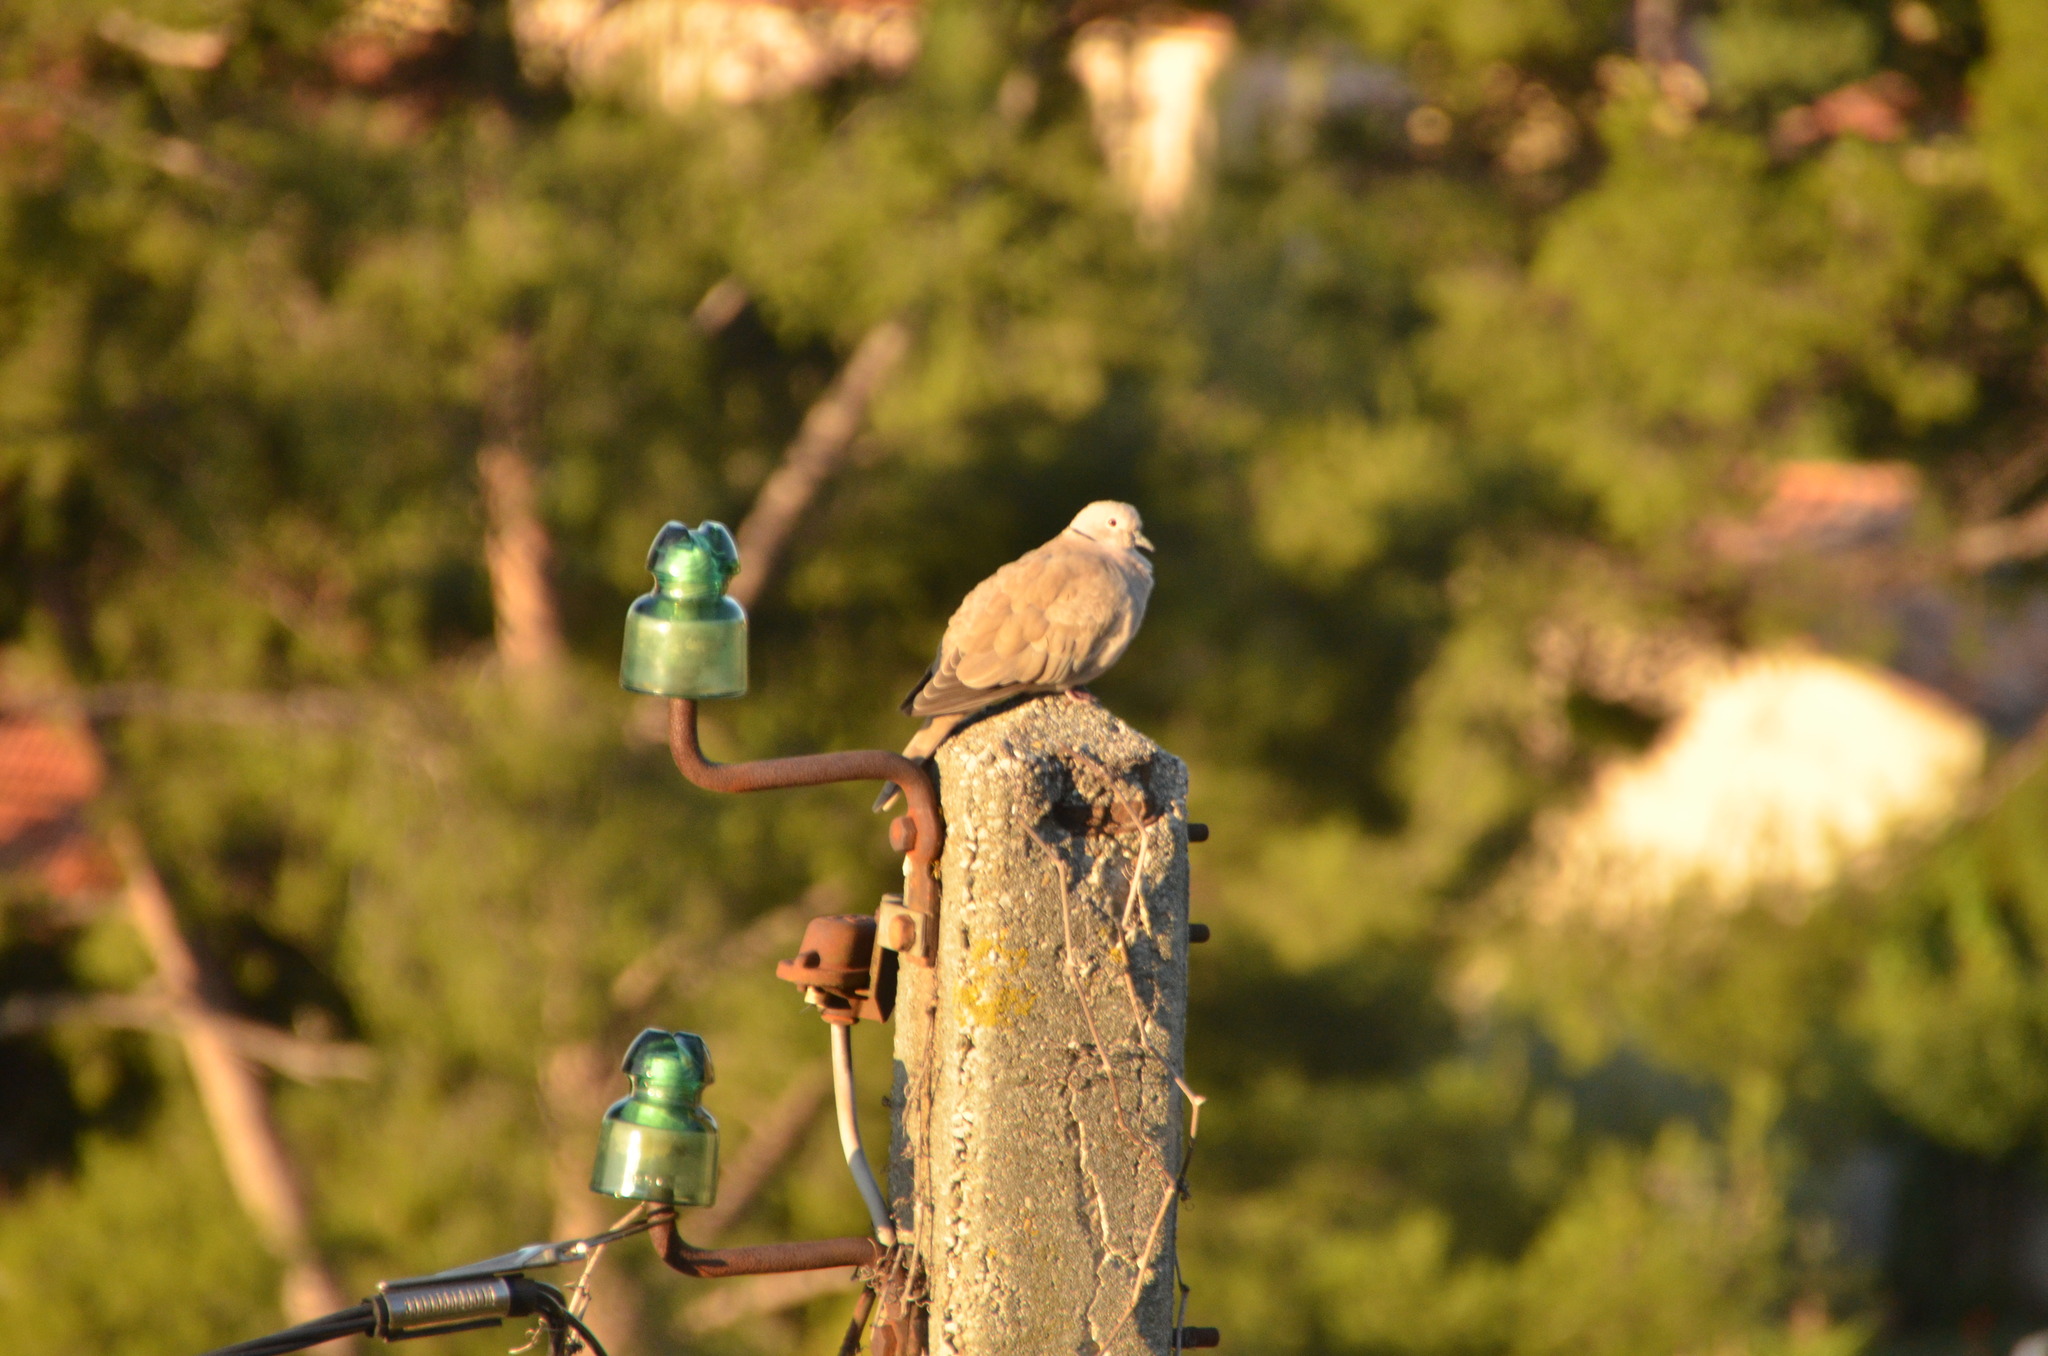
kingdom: Animalia
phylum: Chordata
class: Aves
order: Columbiformes
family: Columbidae
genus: Streptopelia
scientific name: Streptopelia decaocto
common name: Eurasian collared dove
